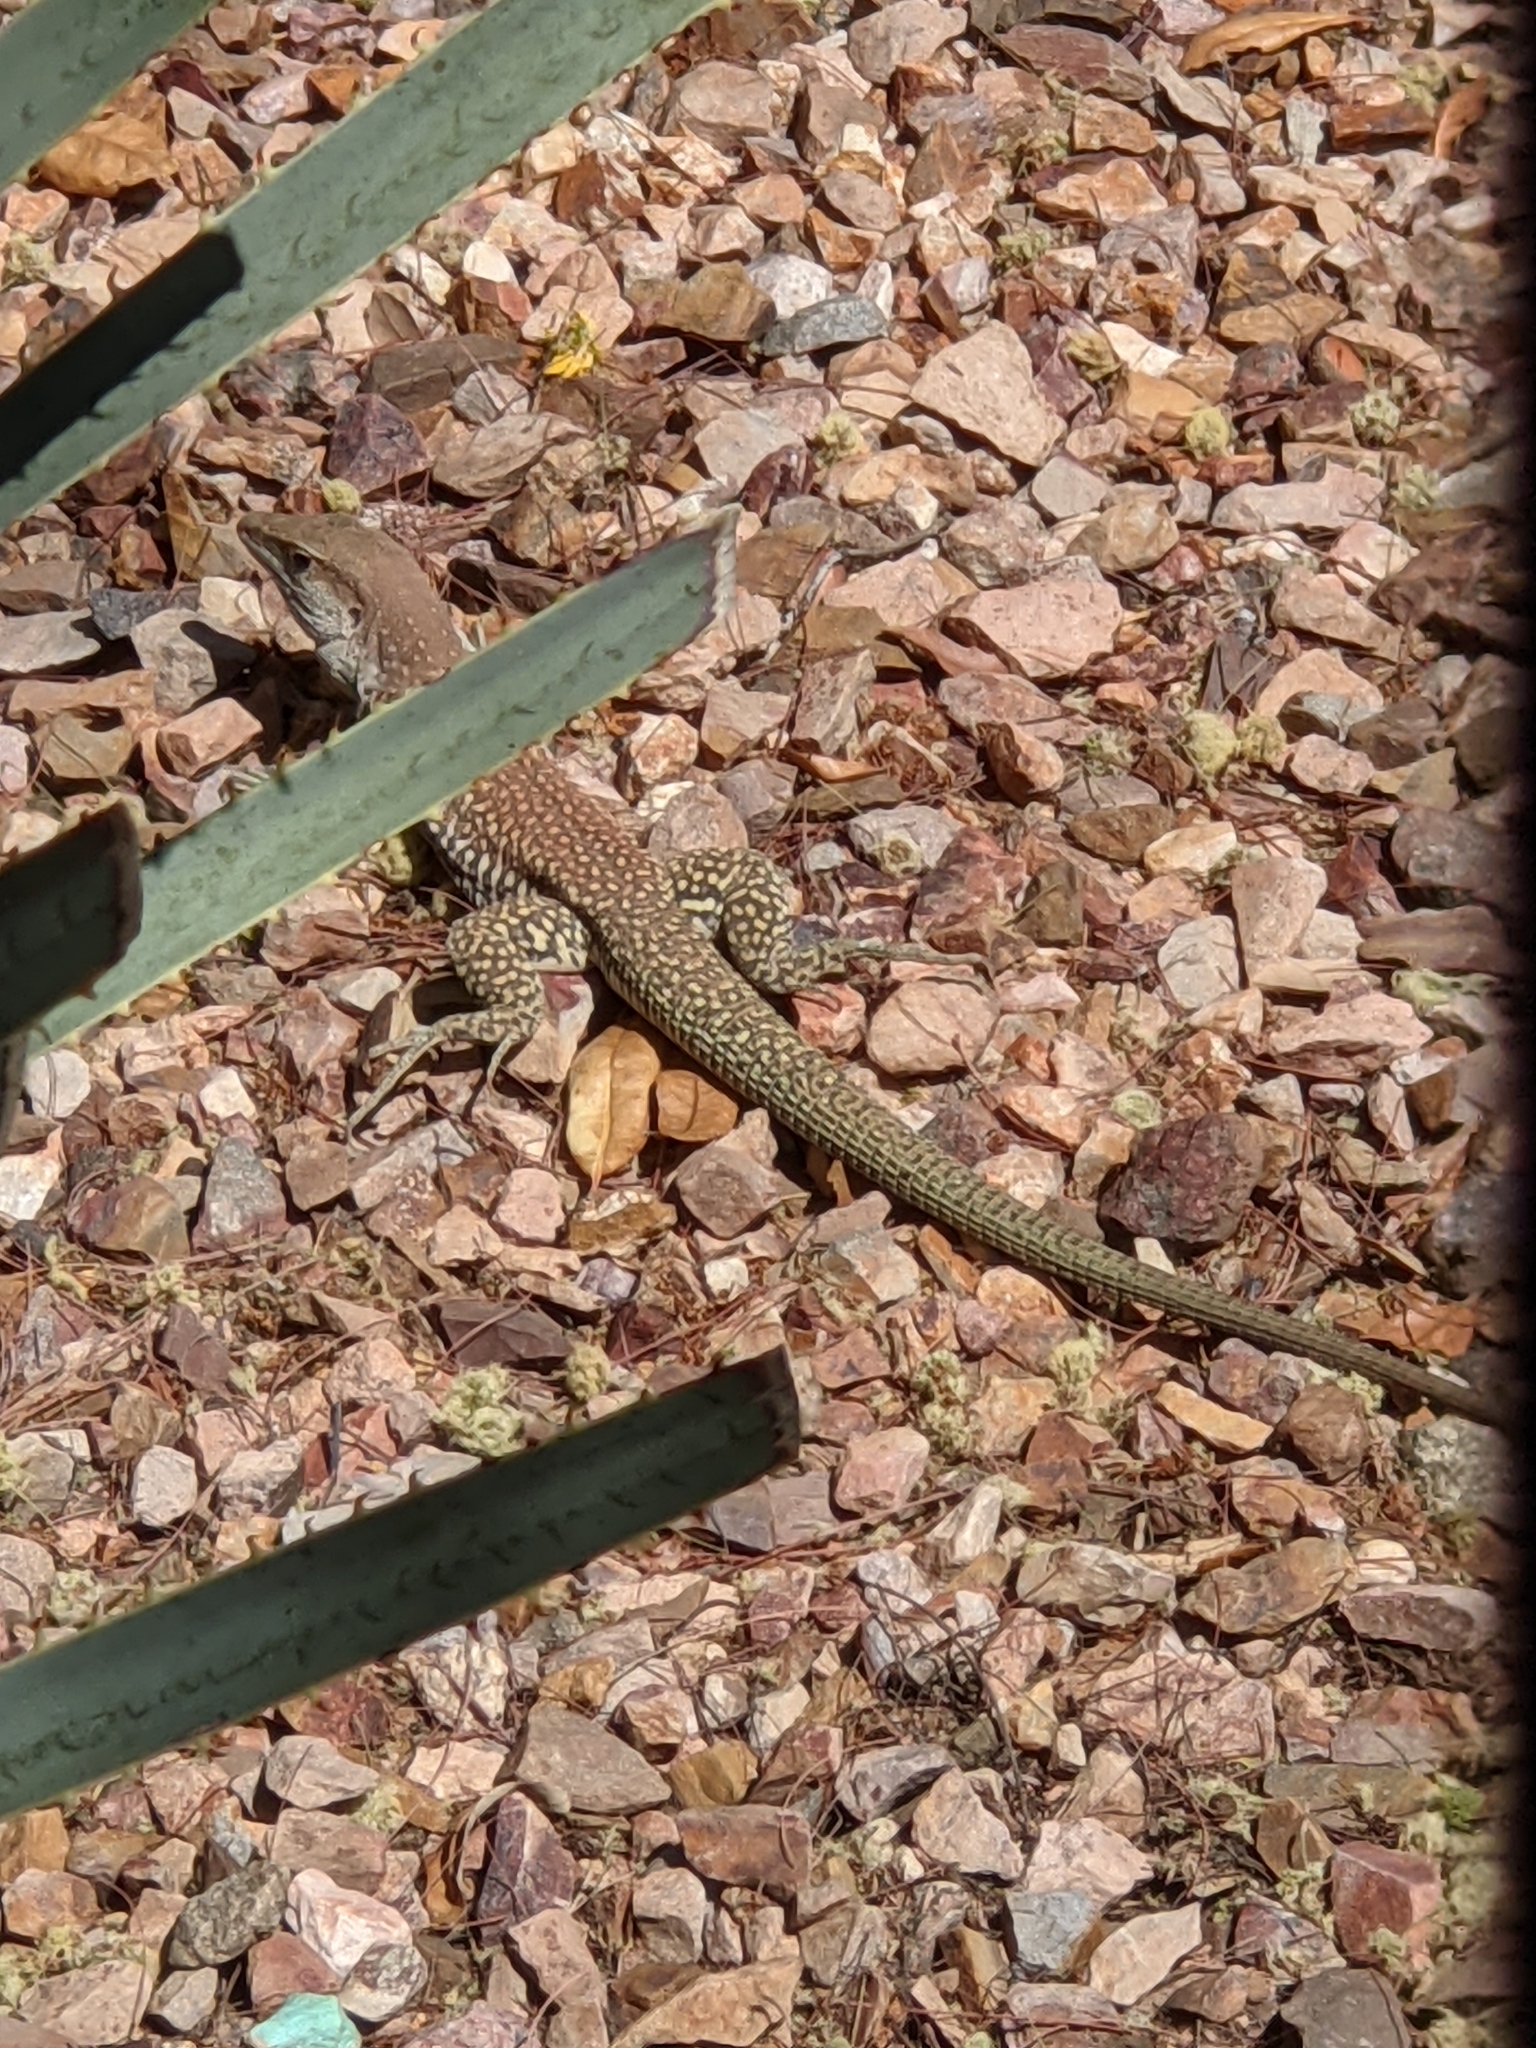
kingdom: Animalia
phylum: Chordata
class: Squamata
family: Teiidae
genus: Aspidoscelis
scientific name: Aspidoscelis stictogrammus
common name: Giant spotted whiptail
